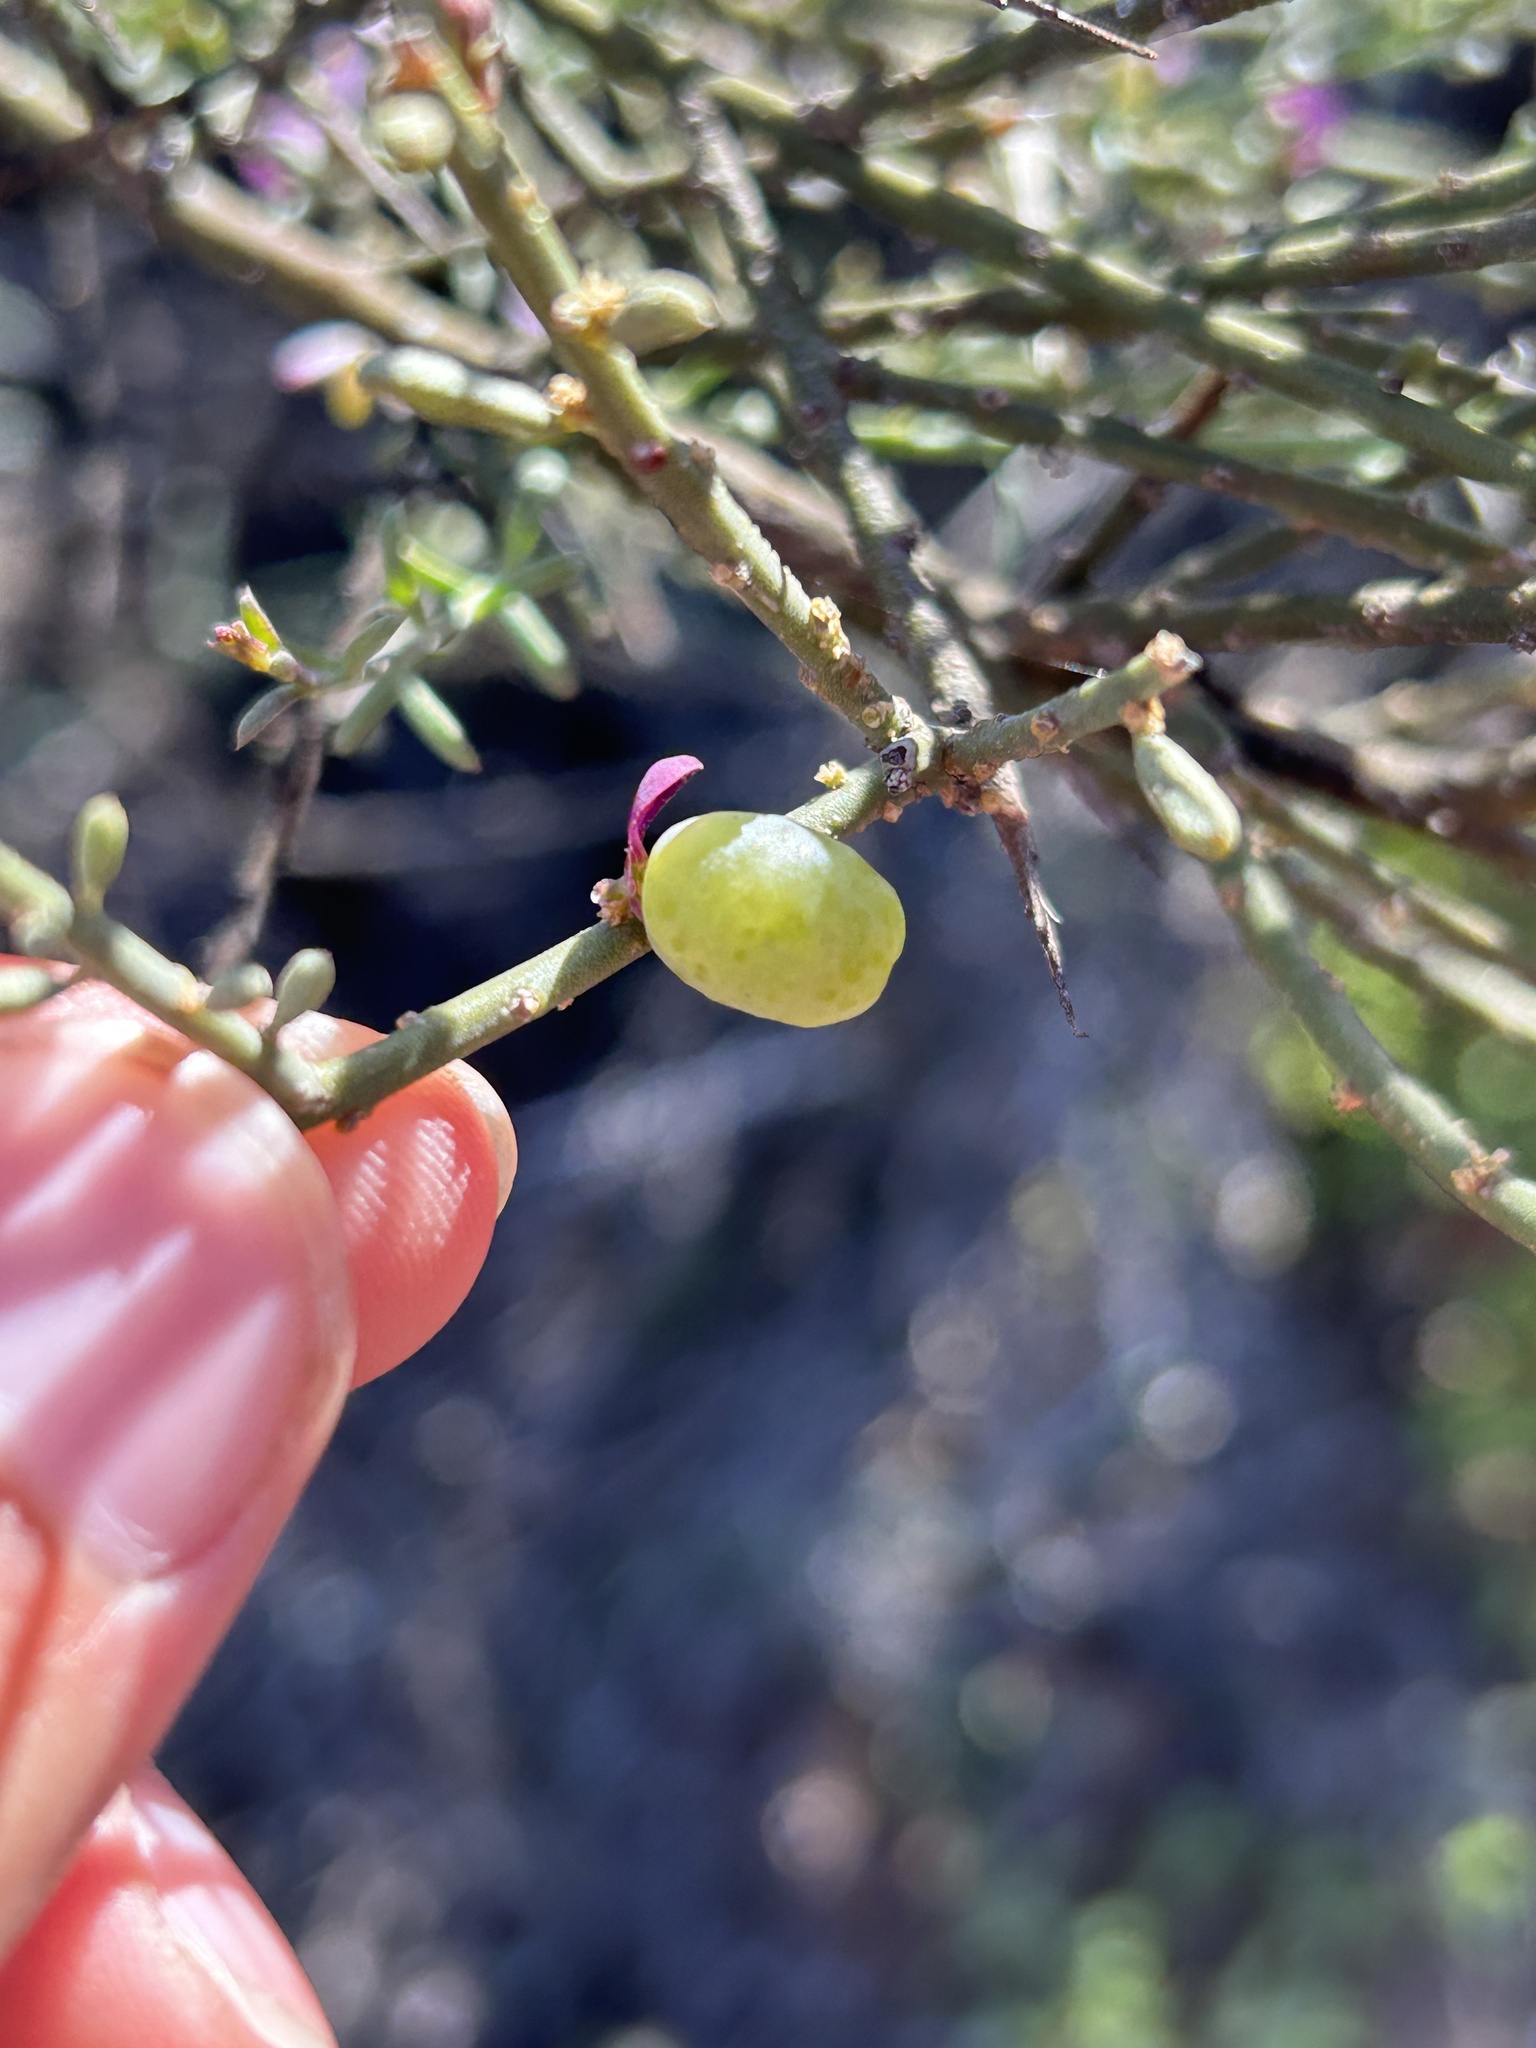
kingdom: Plantae
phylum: Tracheophyta
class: Magnoliopsida
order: Fabales
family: Polygalaceae
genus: Muraltia
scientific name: Muraltia spinosa
